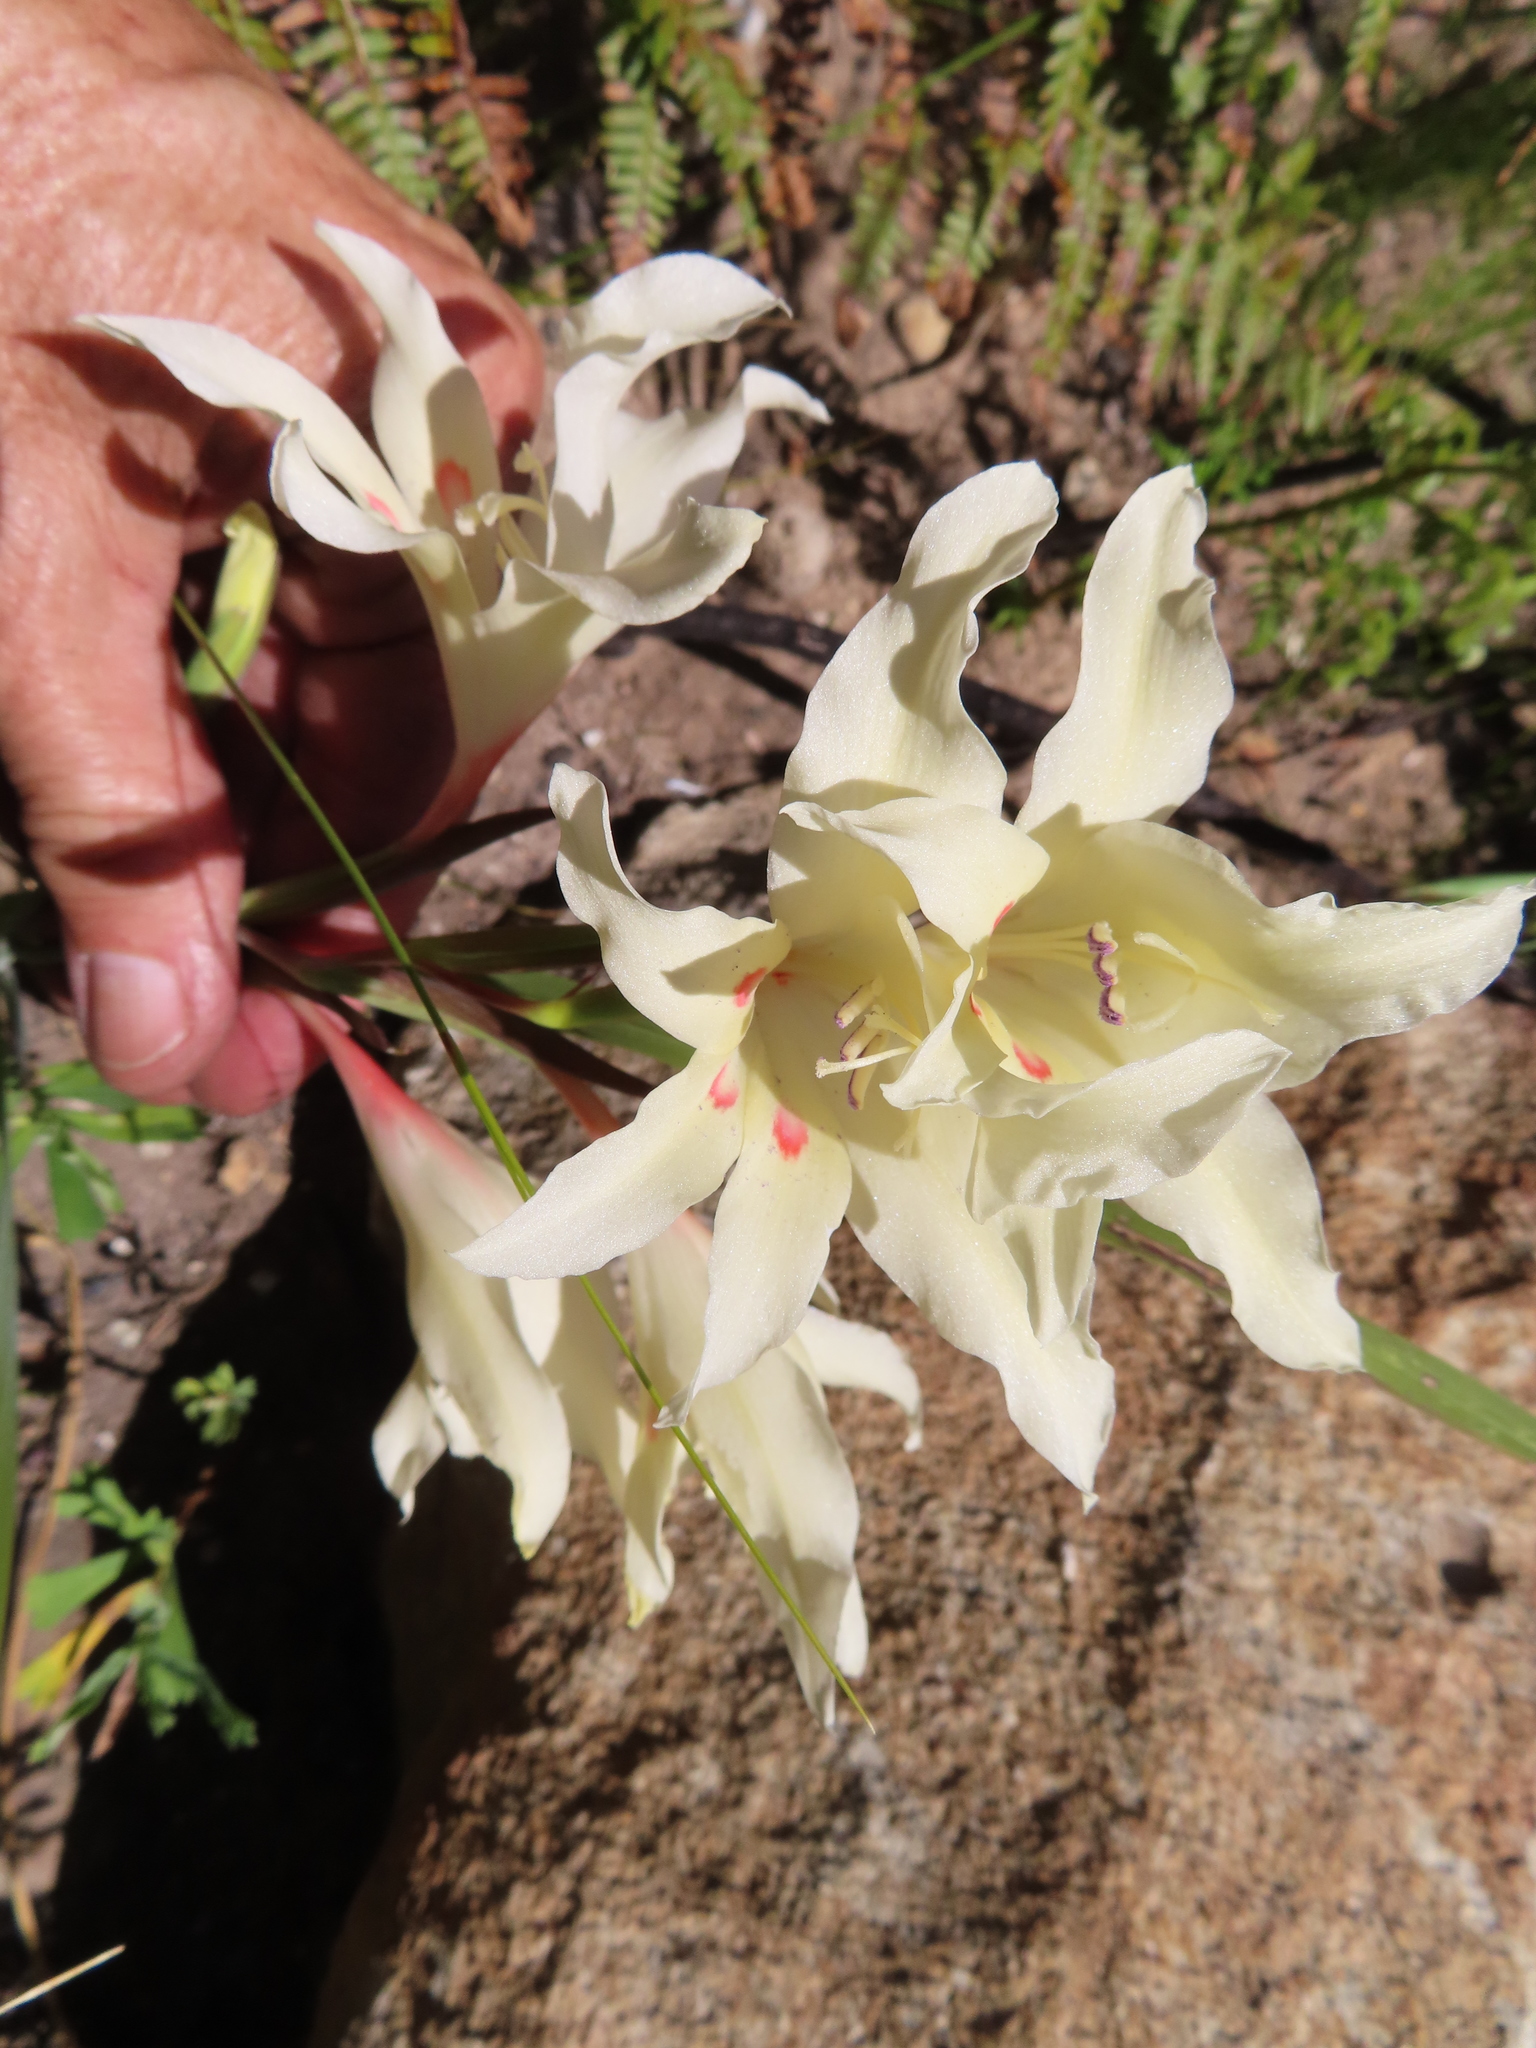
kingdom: Plantae
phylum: Tracheophyta
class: Liliopsida
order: Asparagales
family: Iridaceae
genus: Gladiolus
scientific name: Gladiolus undulatus
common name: Large painted-lady
